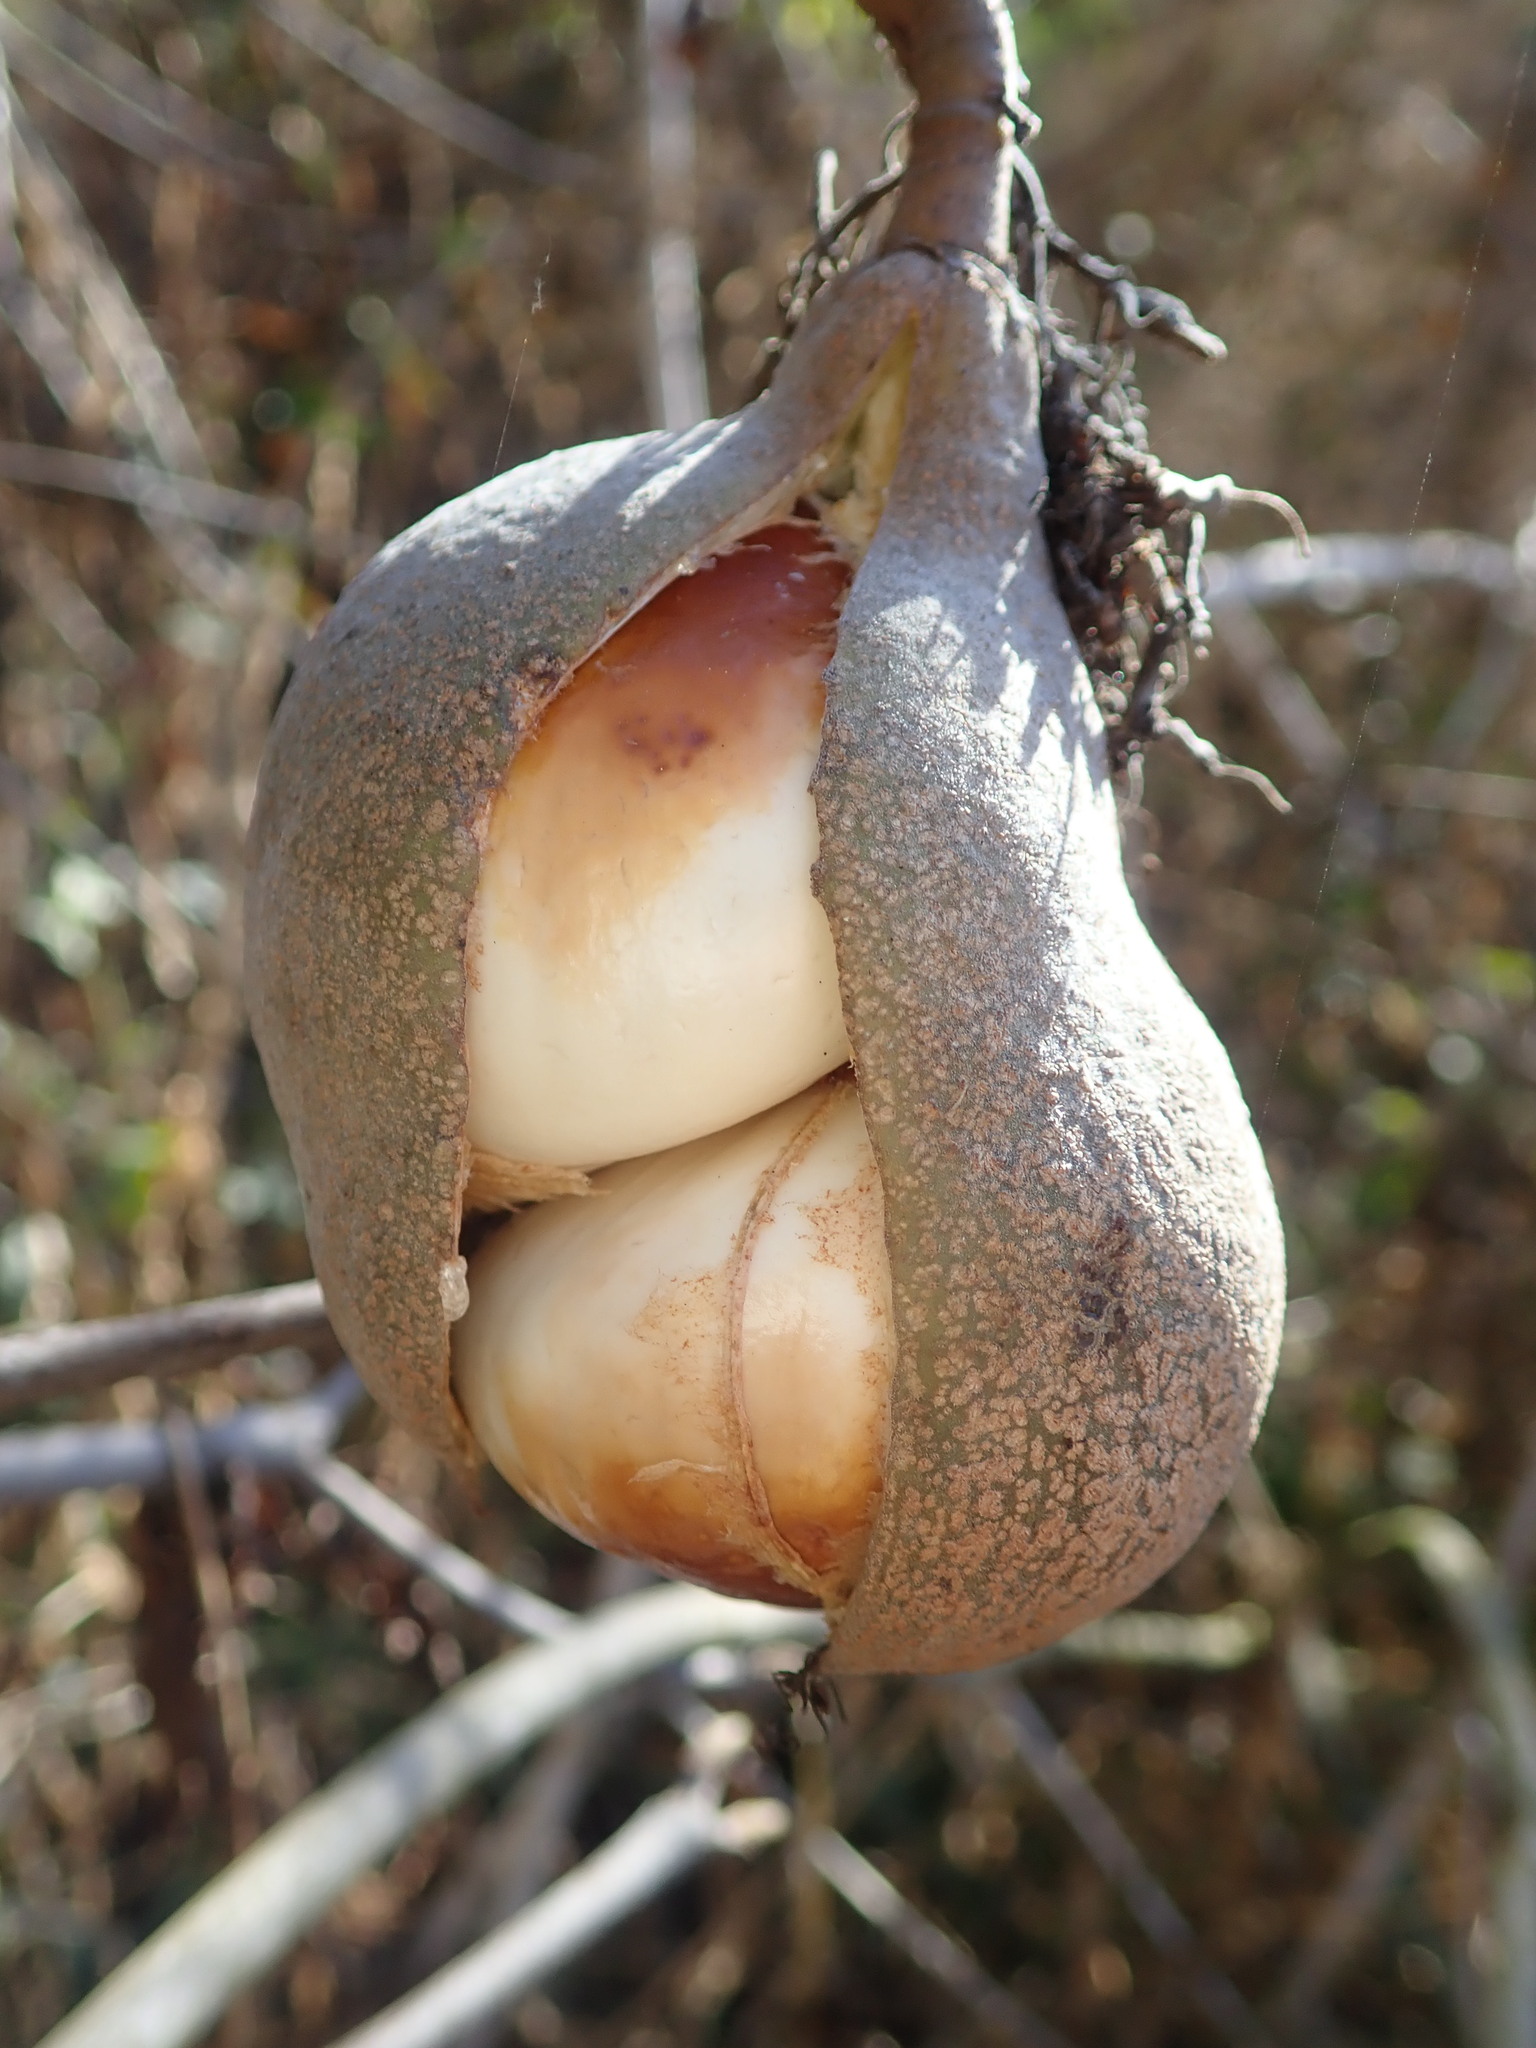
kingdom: Plantae
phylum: Tracheophyta
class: Magnoliopsida
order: Sapindales
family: Sapindaceae
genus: Aesculus
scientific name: Aesculus californica
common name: California buckeye
